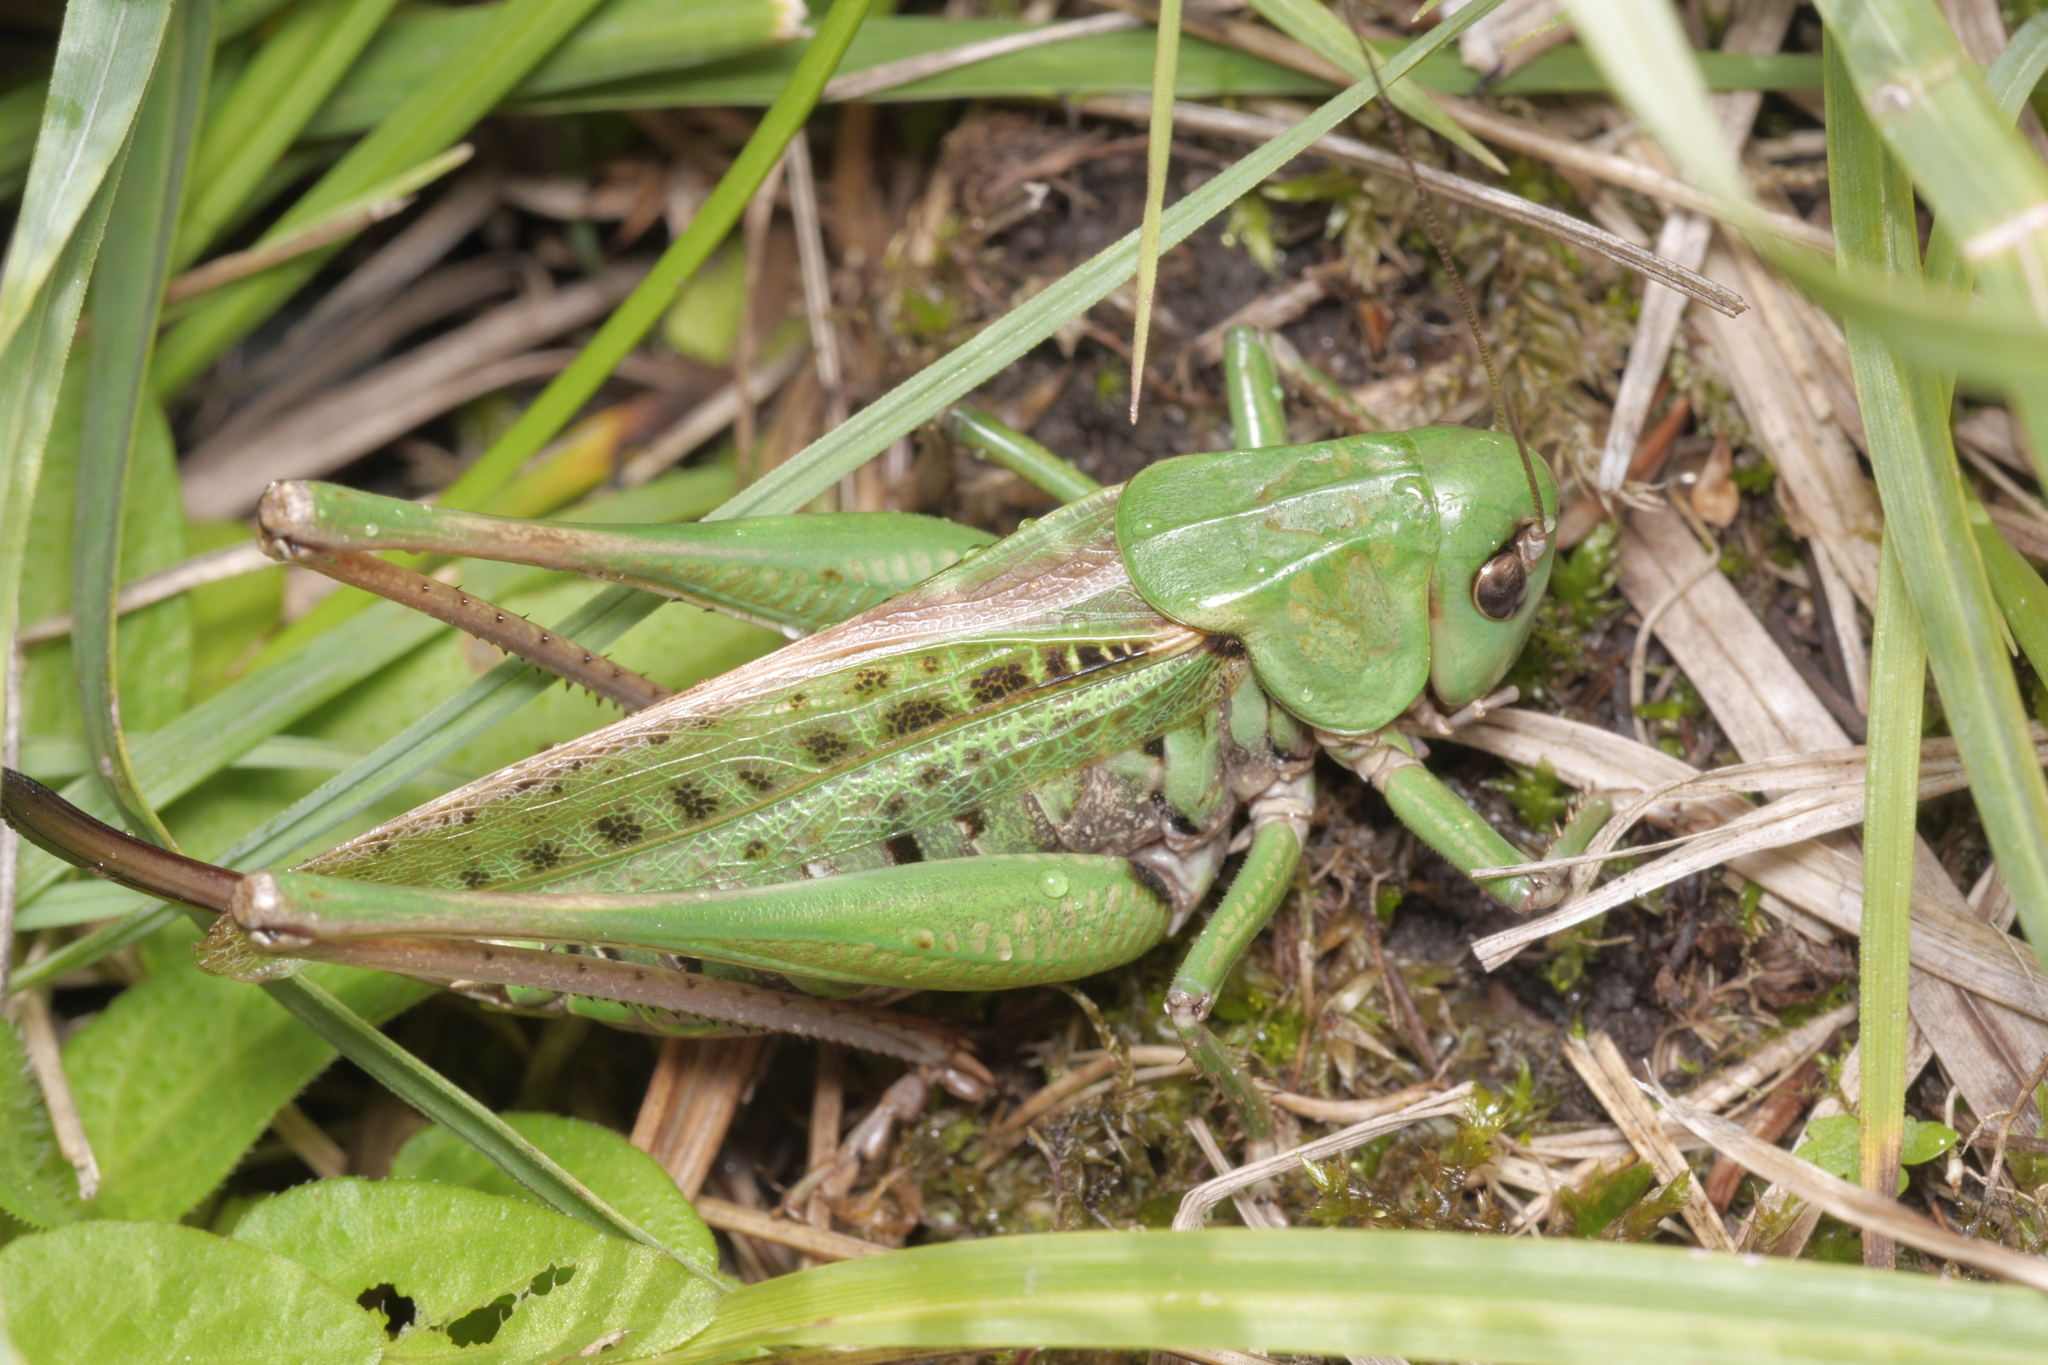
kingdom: Animalia
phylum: Arthropoda
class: Insecta
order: Orthoptera
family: Tettigoniidae
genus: Decticus
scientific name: Decticus verrucivorus
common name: Wart-biter
